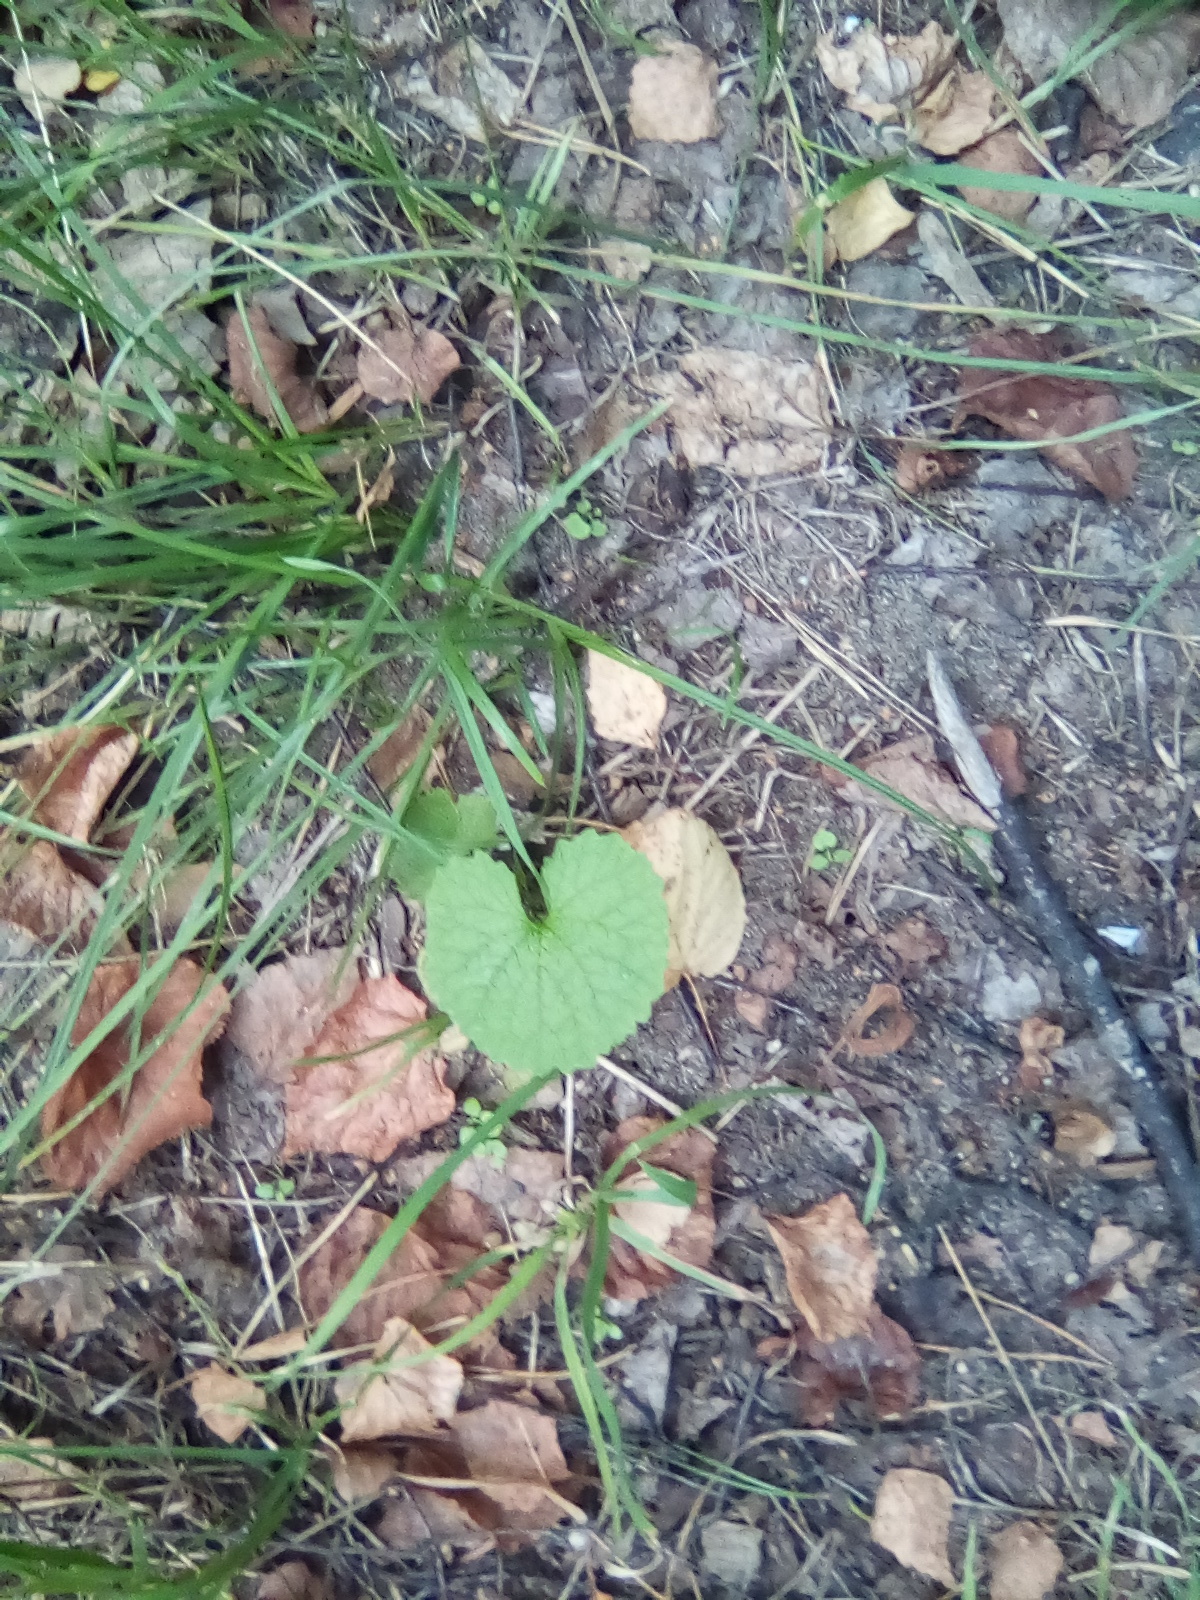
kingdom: Plantae
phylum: Tracheophyta
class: Magnoliopsida
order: Brassicales
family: Brassicaceae
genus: Alliaria
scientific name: Alliaria petiolata
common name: Garlic mustard
